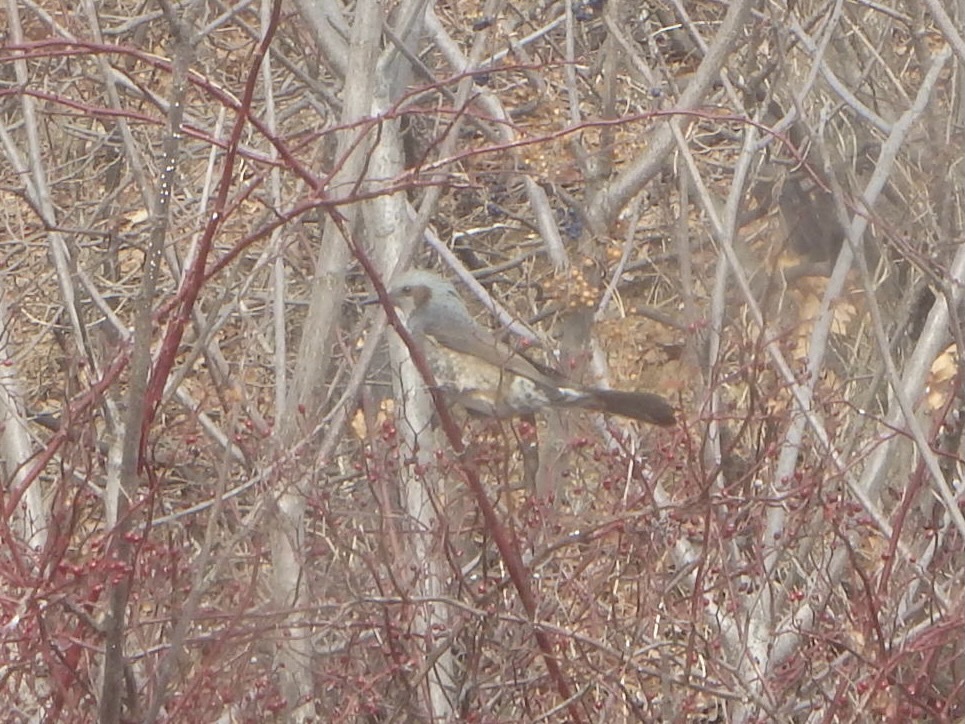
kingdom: Animalia
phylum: Chordata
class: Aves
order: Passeriformes
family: Pycnonotidae
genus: Hypsipetes
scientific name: Hypsipetes amaurotis
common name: Brown-eared bulbul
